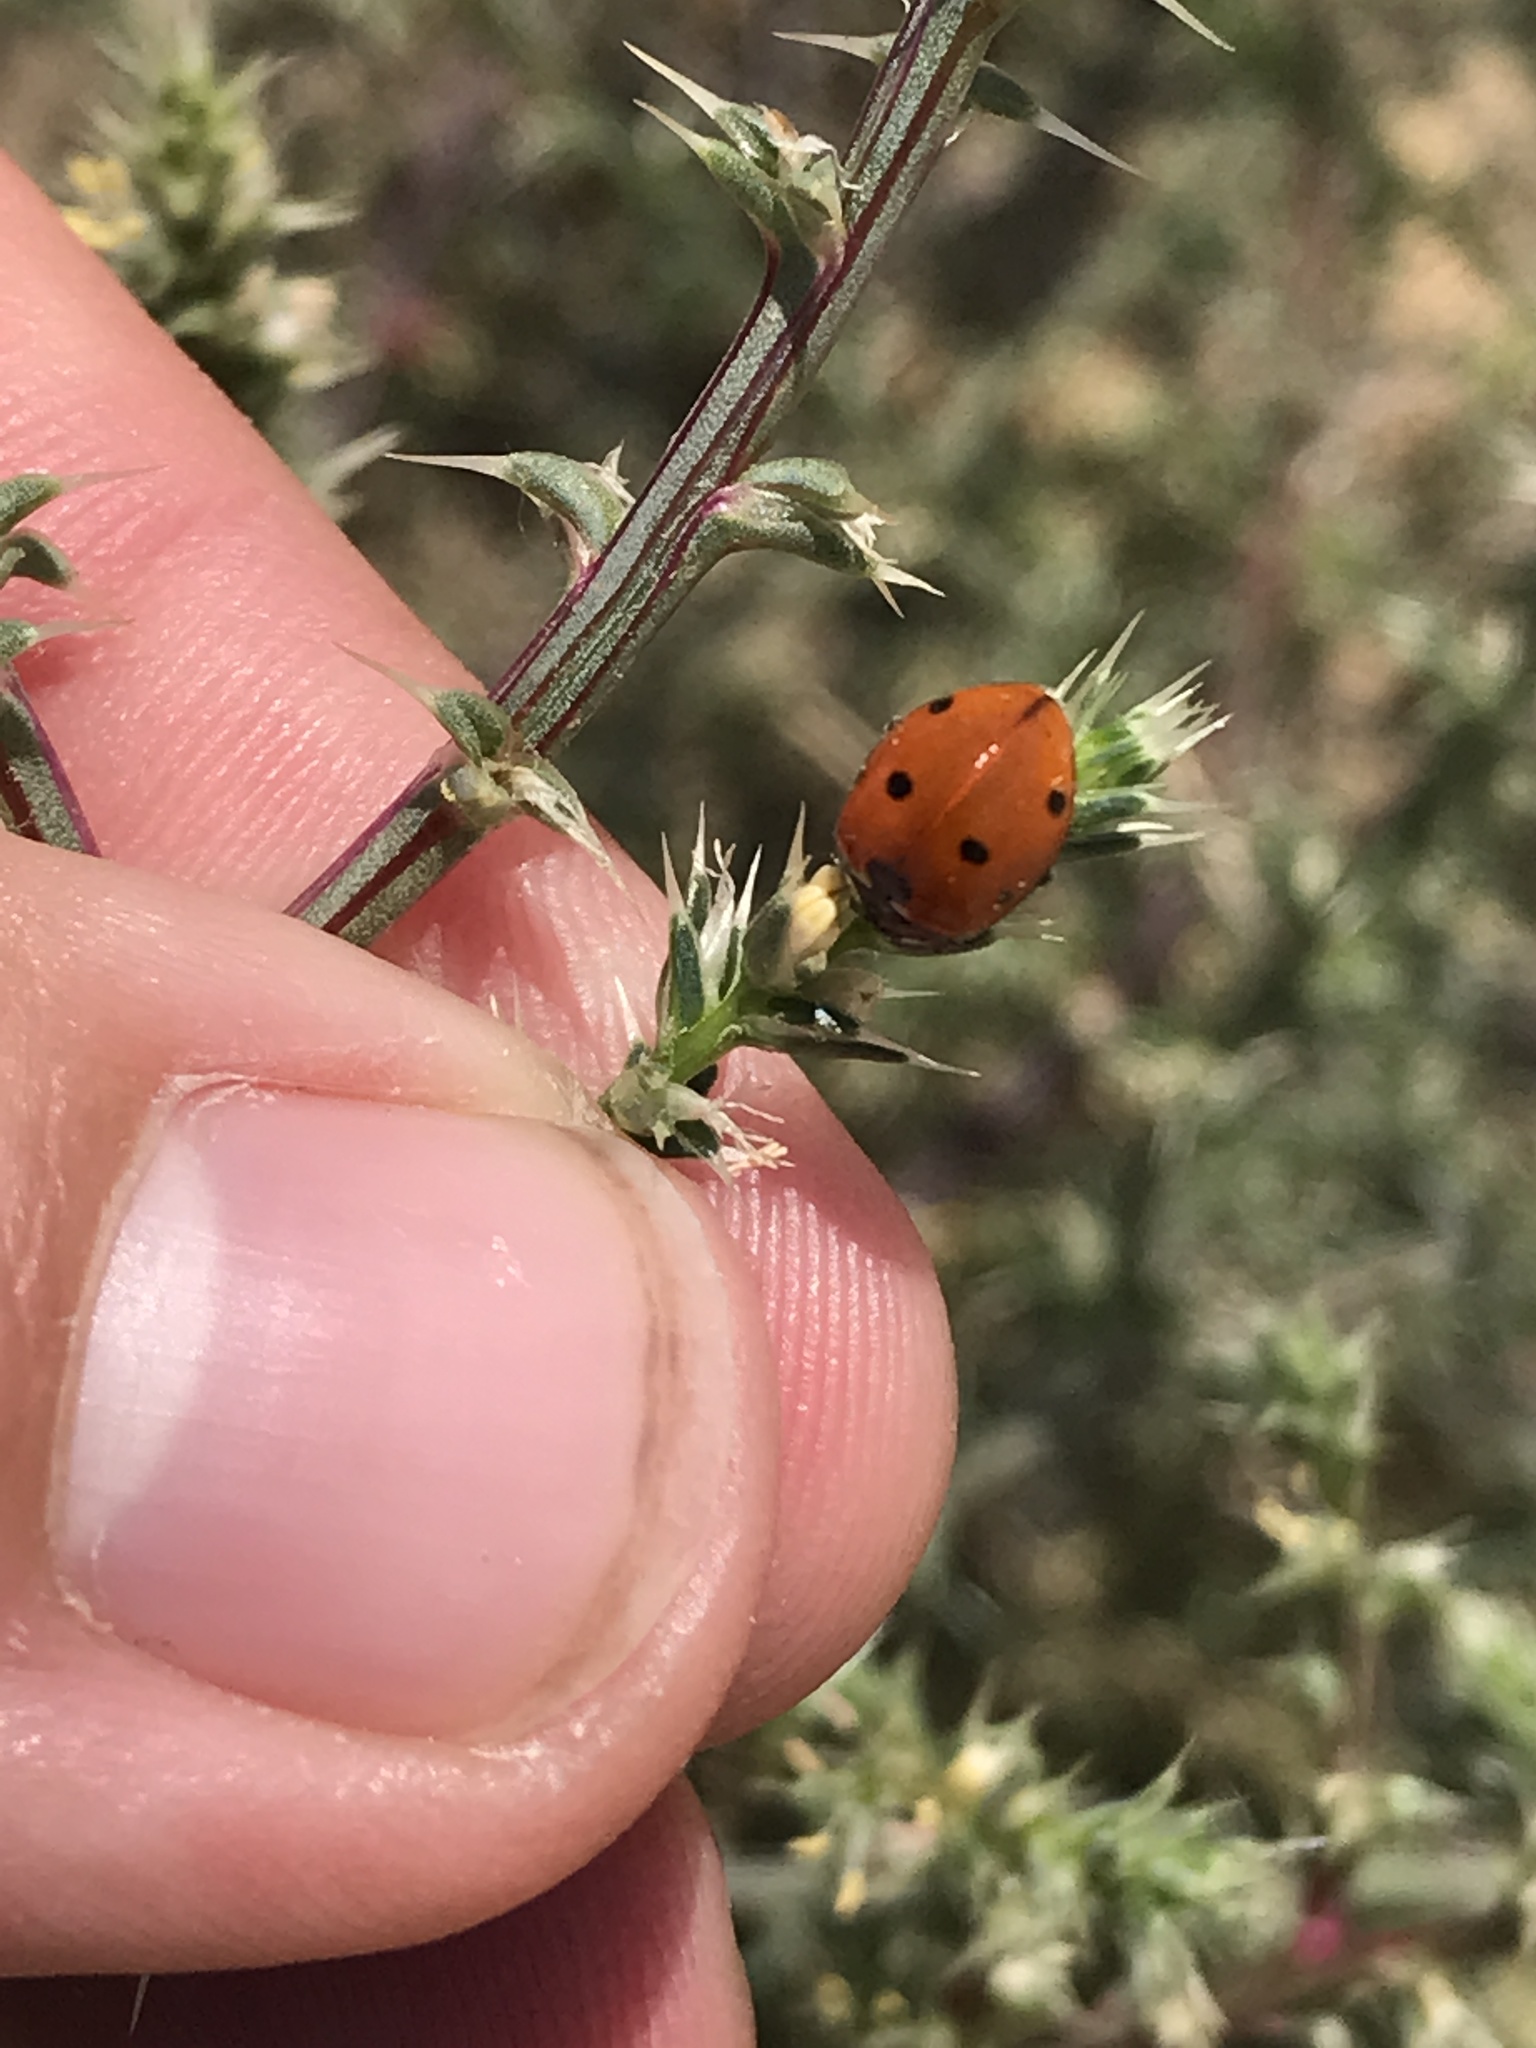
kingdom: Animalia
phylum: Arthropoda
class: Insecta
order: Coleoptera
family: Coccinellidae
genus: Coccinella
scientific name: Coccinella septempunctata
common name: Sevenspotted lady beetle
